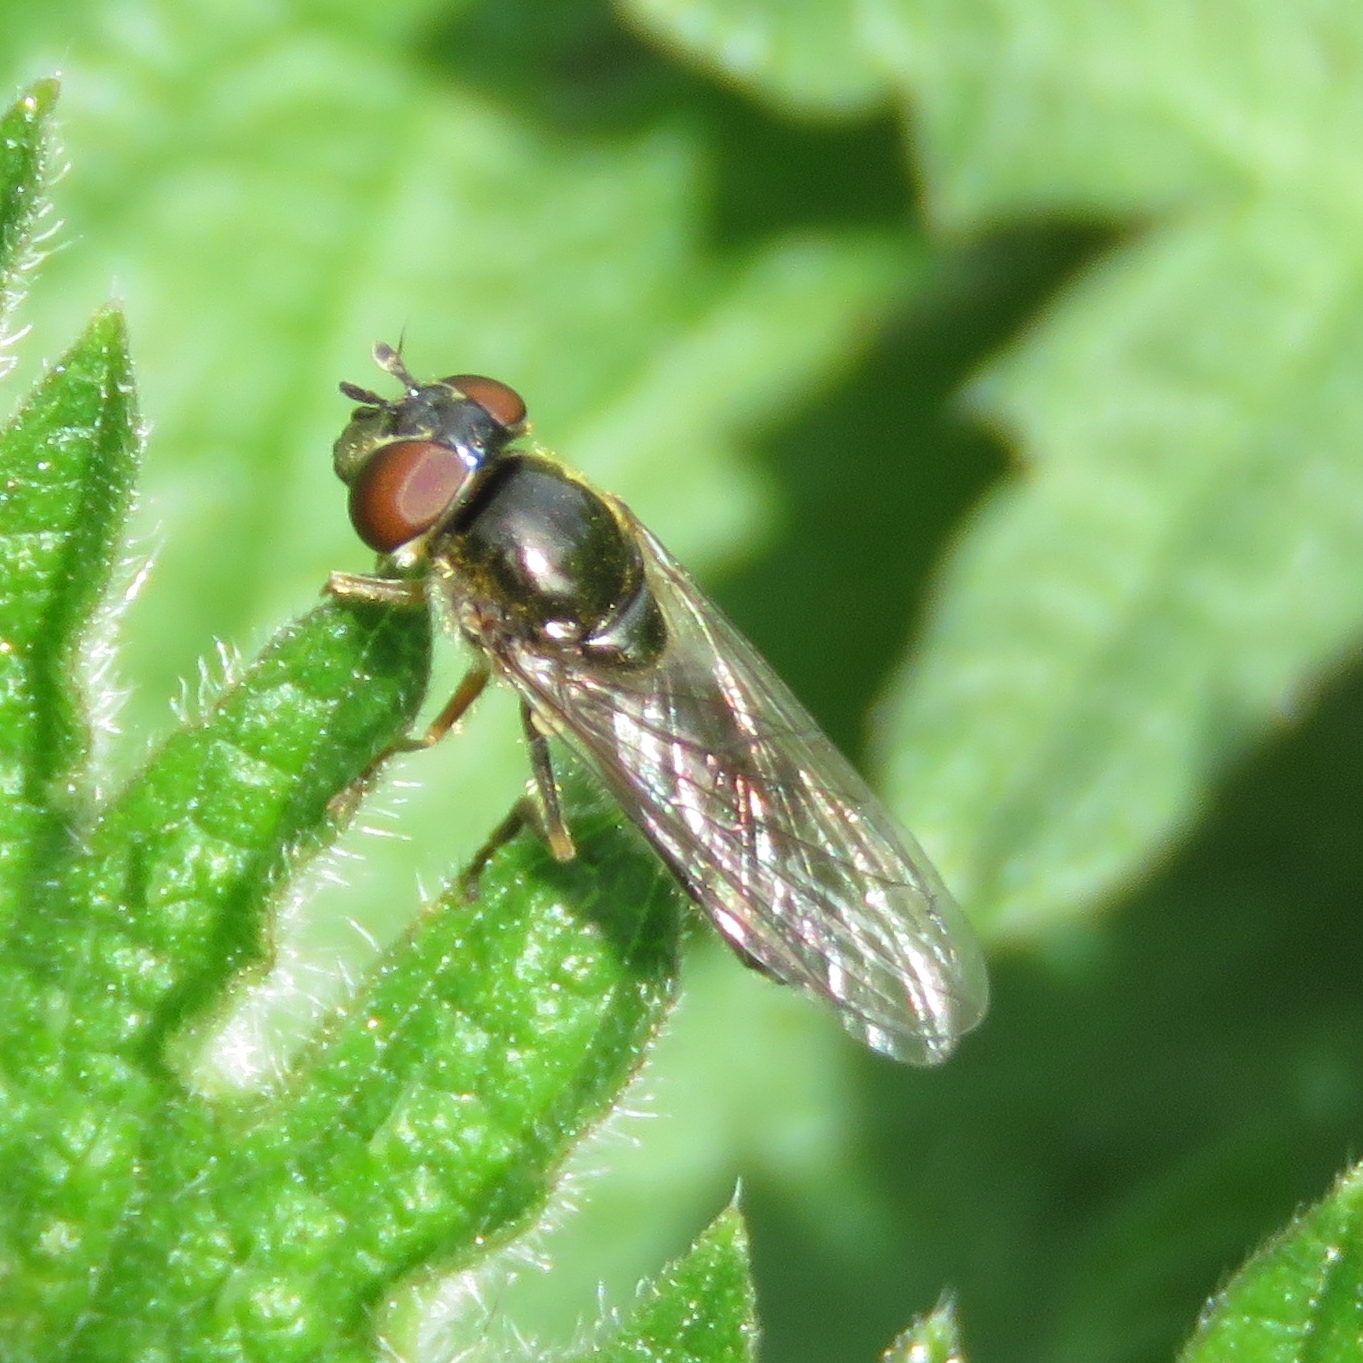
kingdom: Animalia
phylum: Arthropoda
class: Insecta
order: Diptera
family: Syrphidae
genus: Platycheirus
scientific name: Platycheirus albimanus
